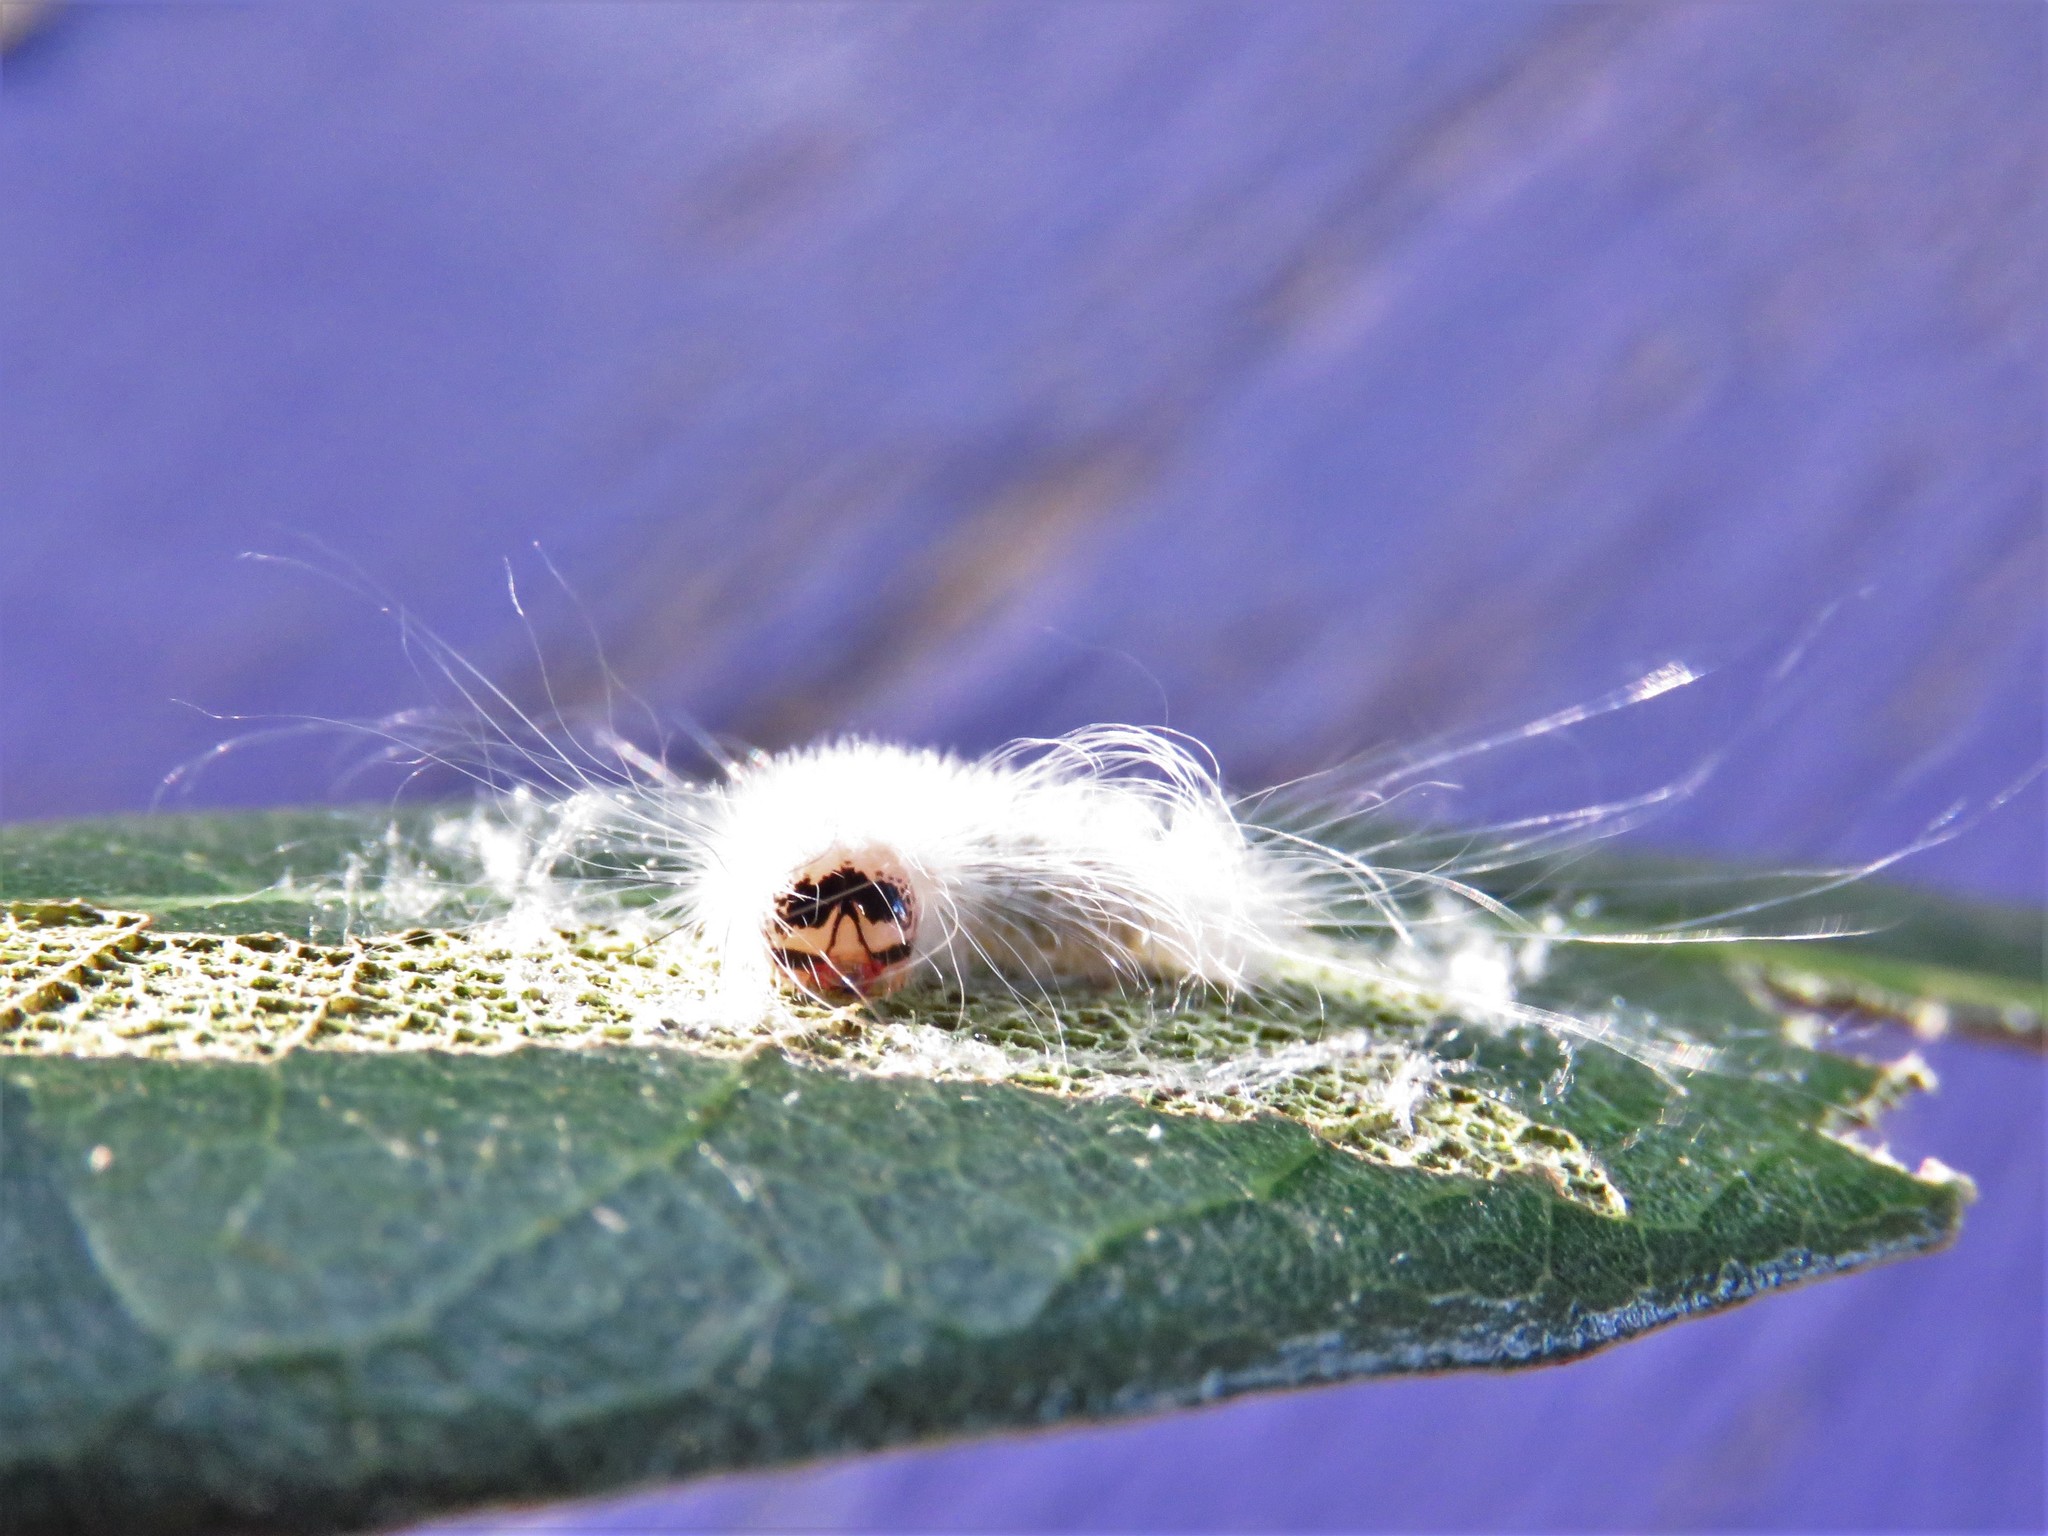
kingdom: Animalia
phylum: Arthropoda
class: Insecta
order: Lepidoptera
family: Noctuidae
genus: Charadra
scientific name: Charadra dispulsa
